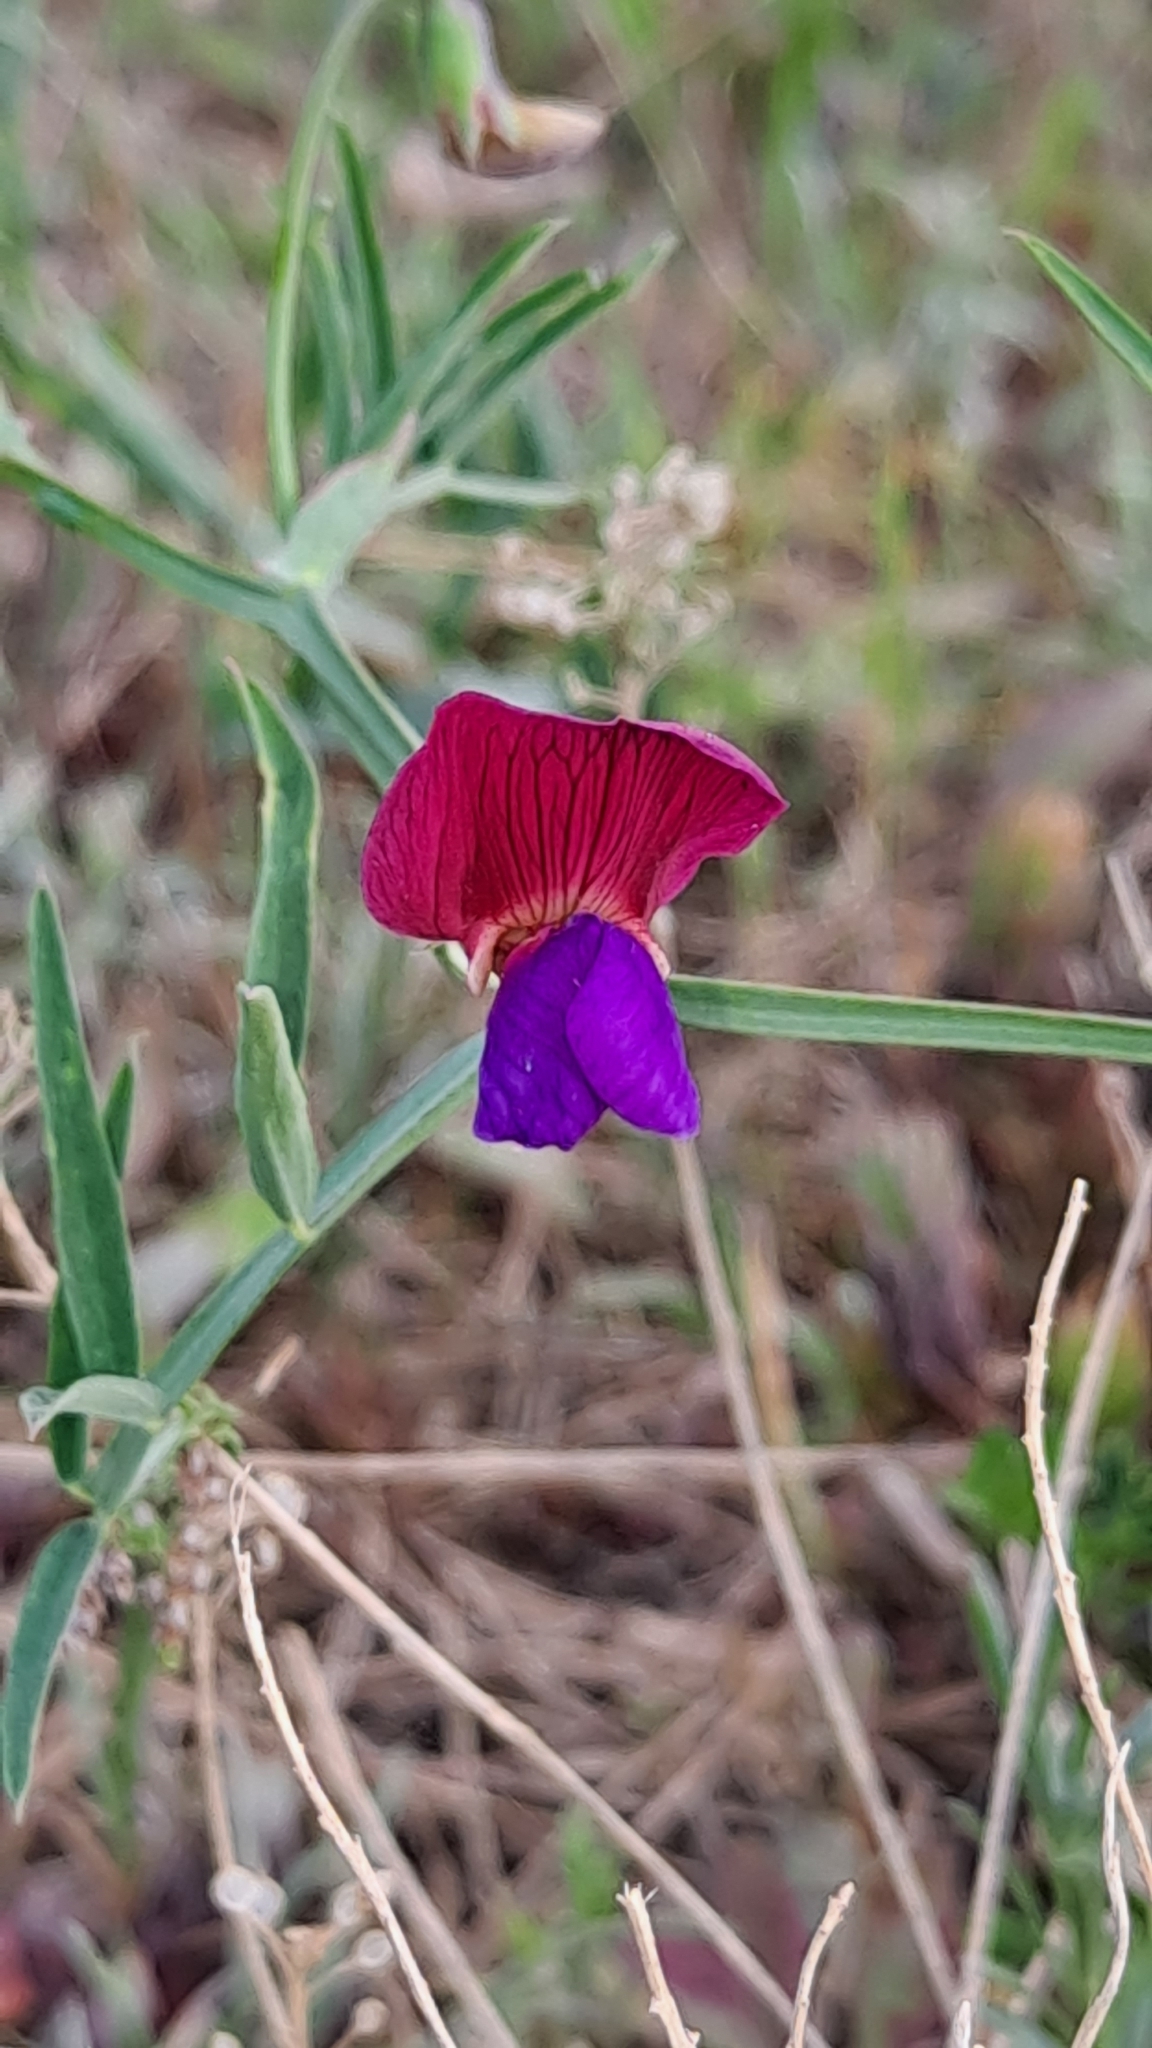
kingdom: Plantae
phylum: Tracheophyta
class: Magnoliopsida
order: Fabales
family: Fabaceae
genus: Lathyrus
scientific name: Lathyrus clymenum
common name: Spanish vetchling
